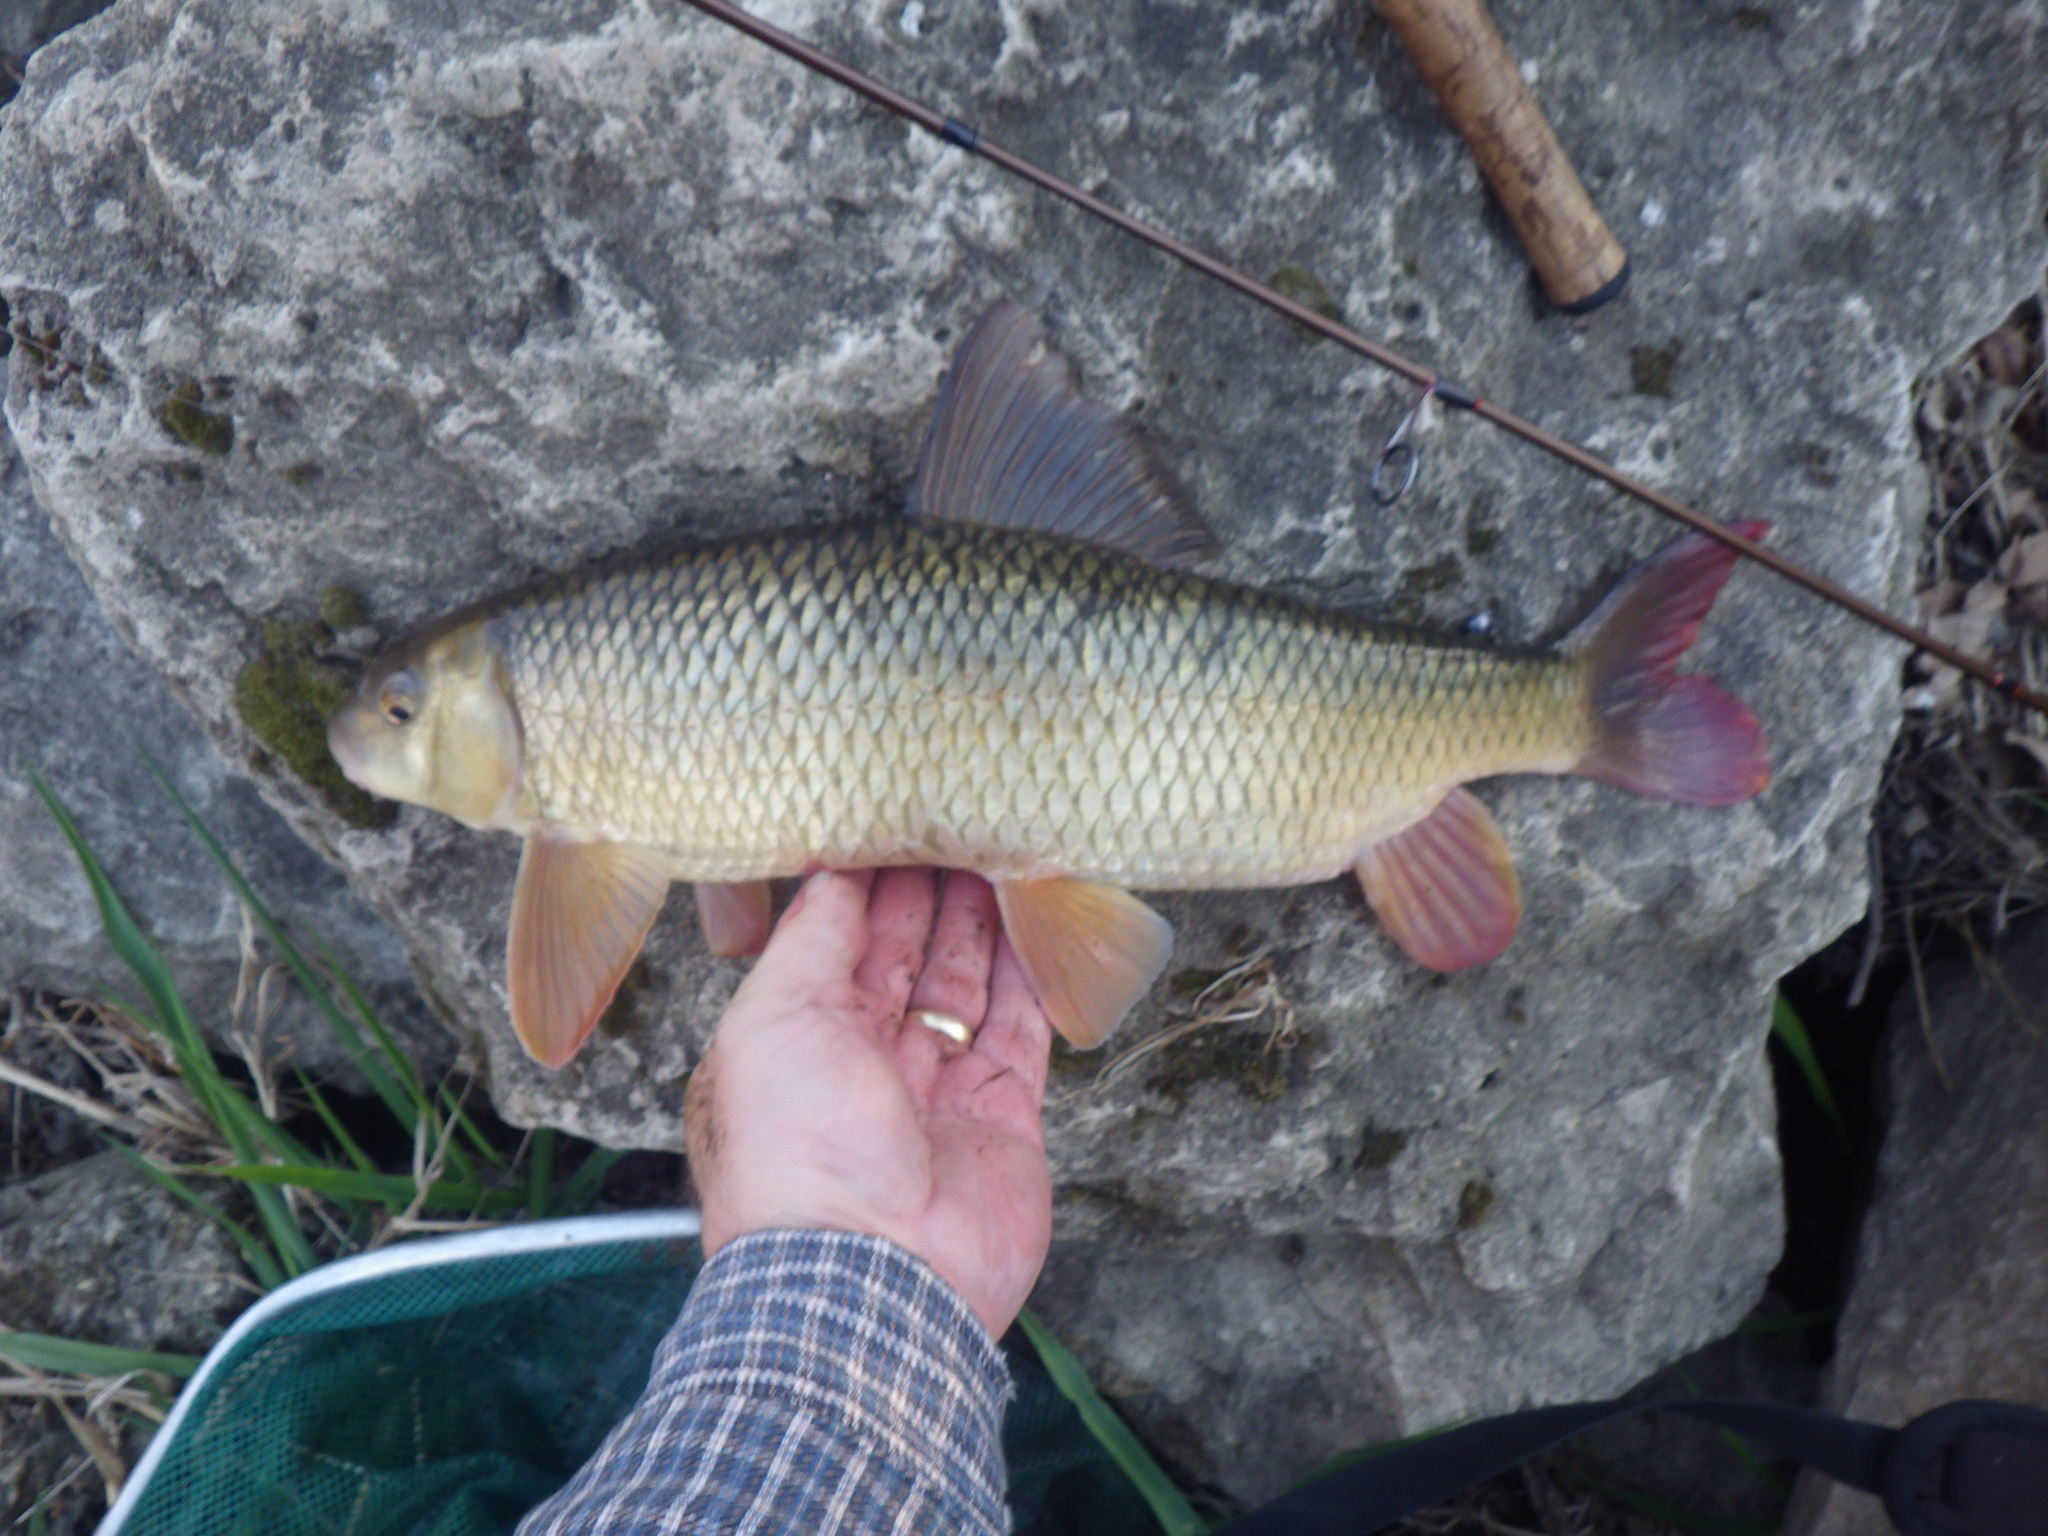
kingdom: Animalia
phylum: Chordata
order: Cypriniformes
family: Catostomidae
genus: Moxostoma
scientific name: Moxostoma macrolepidotum
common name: Shorthead redhorse
